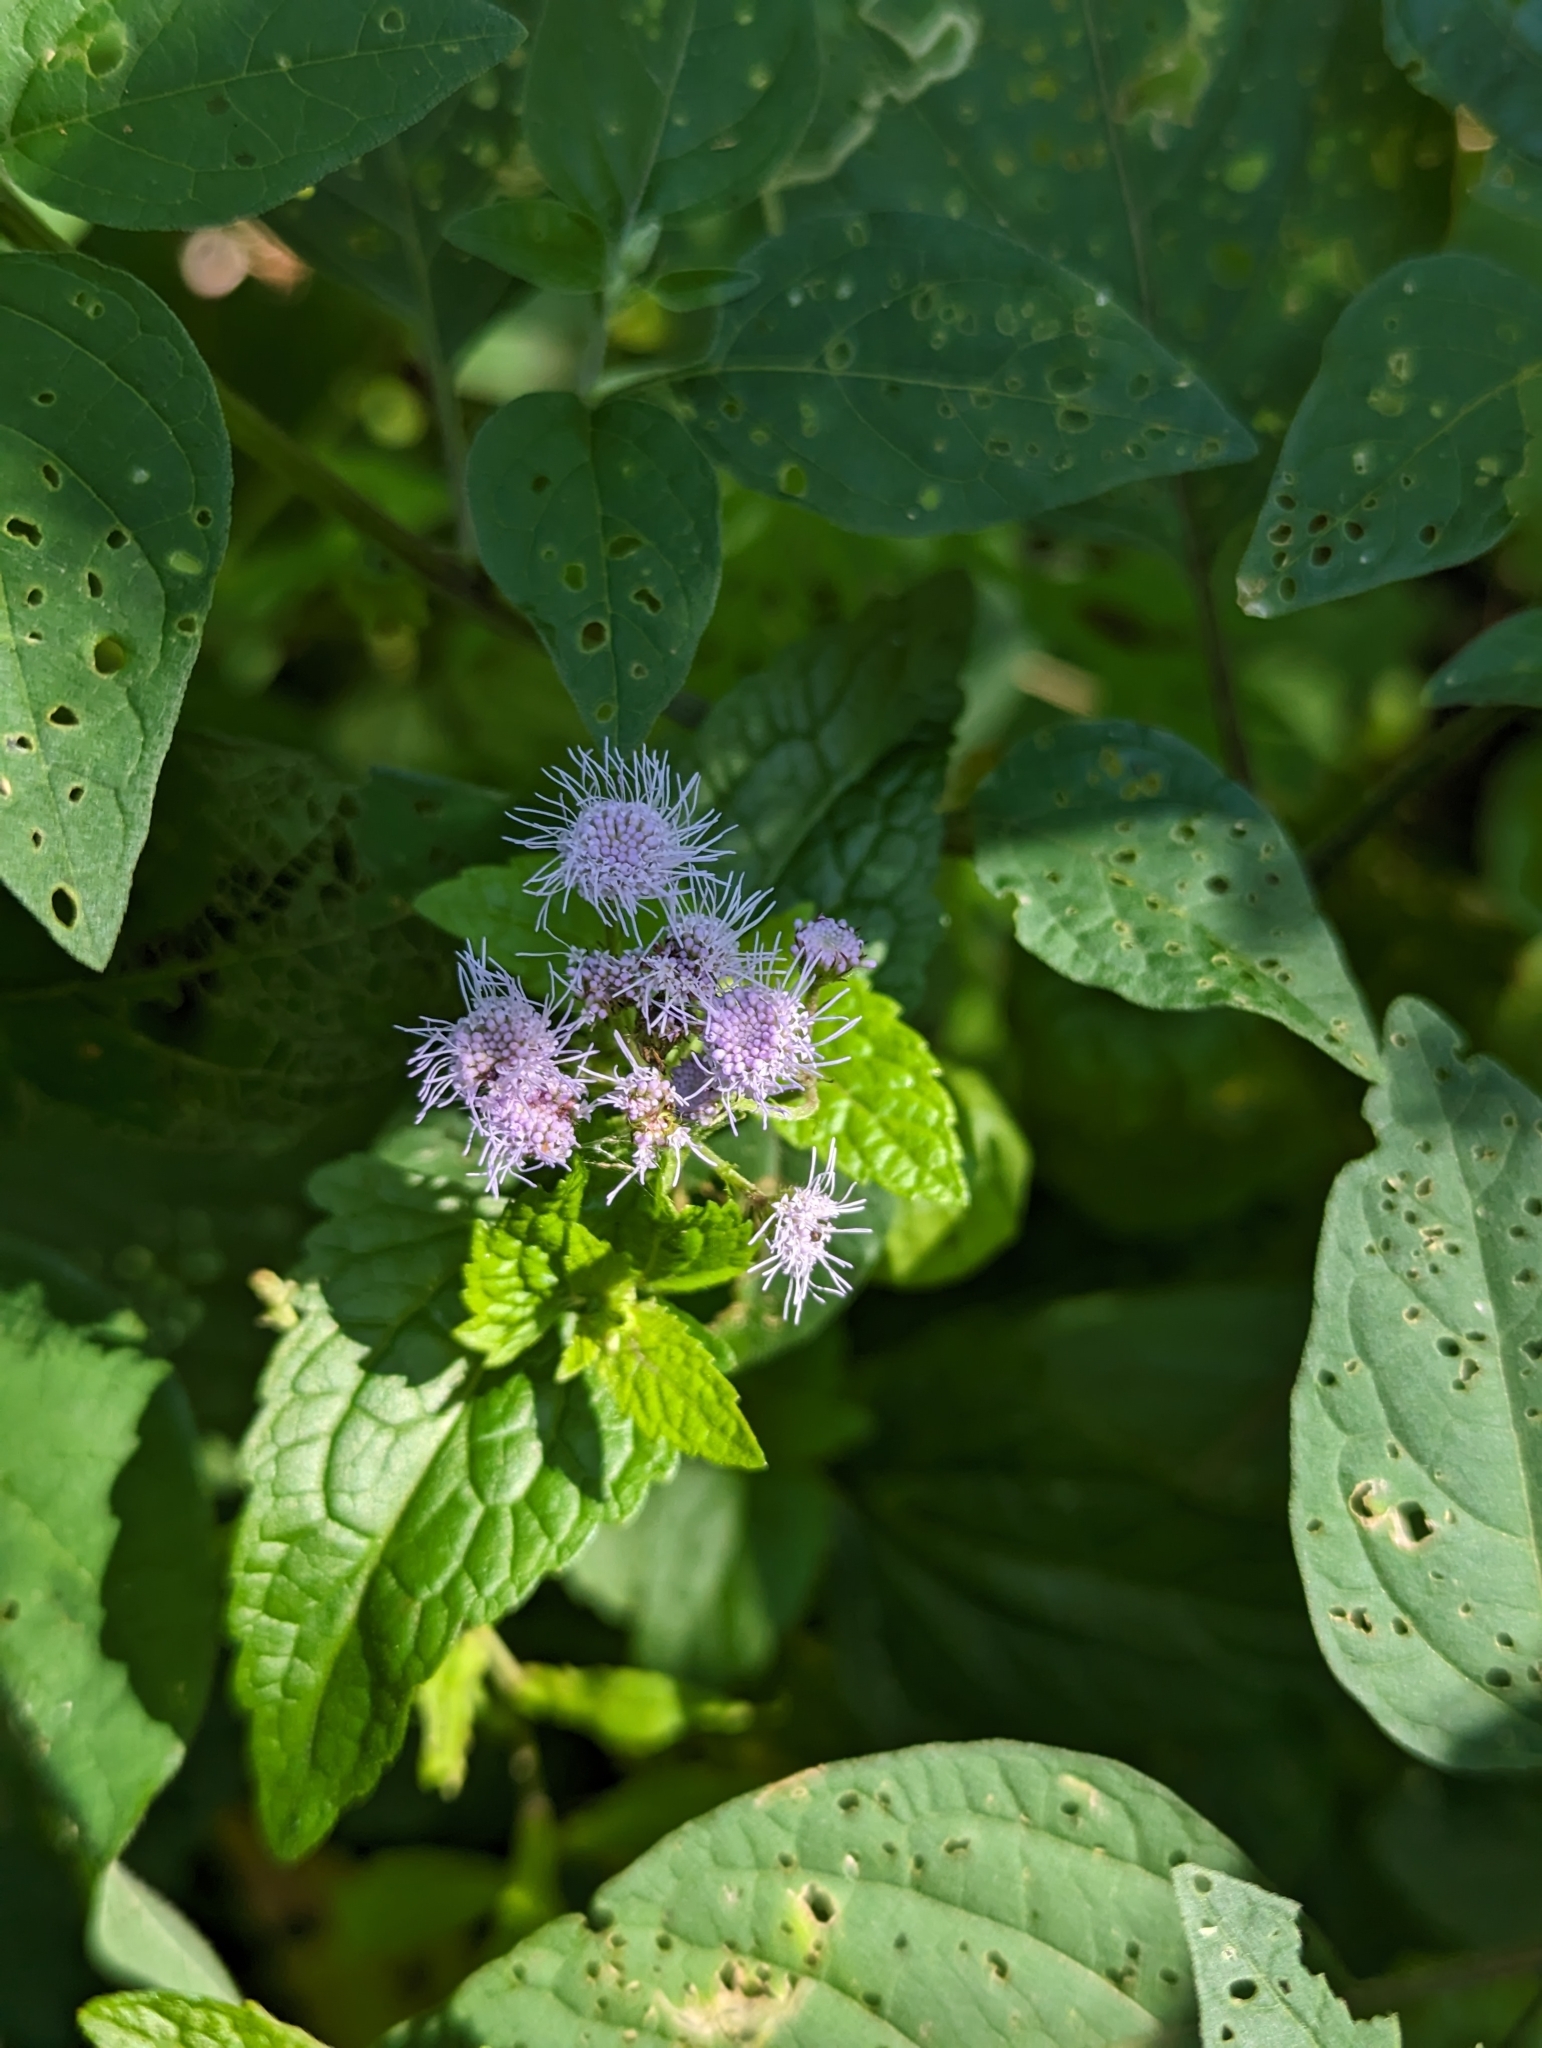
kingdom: Plantae
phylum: Tracheophyta
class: Magnoliopsida
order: Asterales
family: Asteraceae
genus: Conoclinium
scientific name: Conoclinium coelestinum
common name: Blue mistflower
